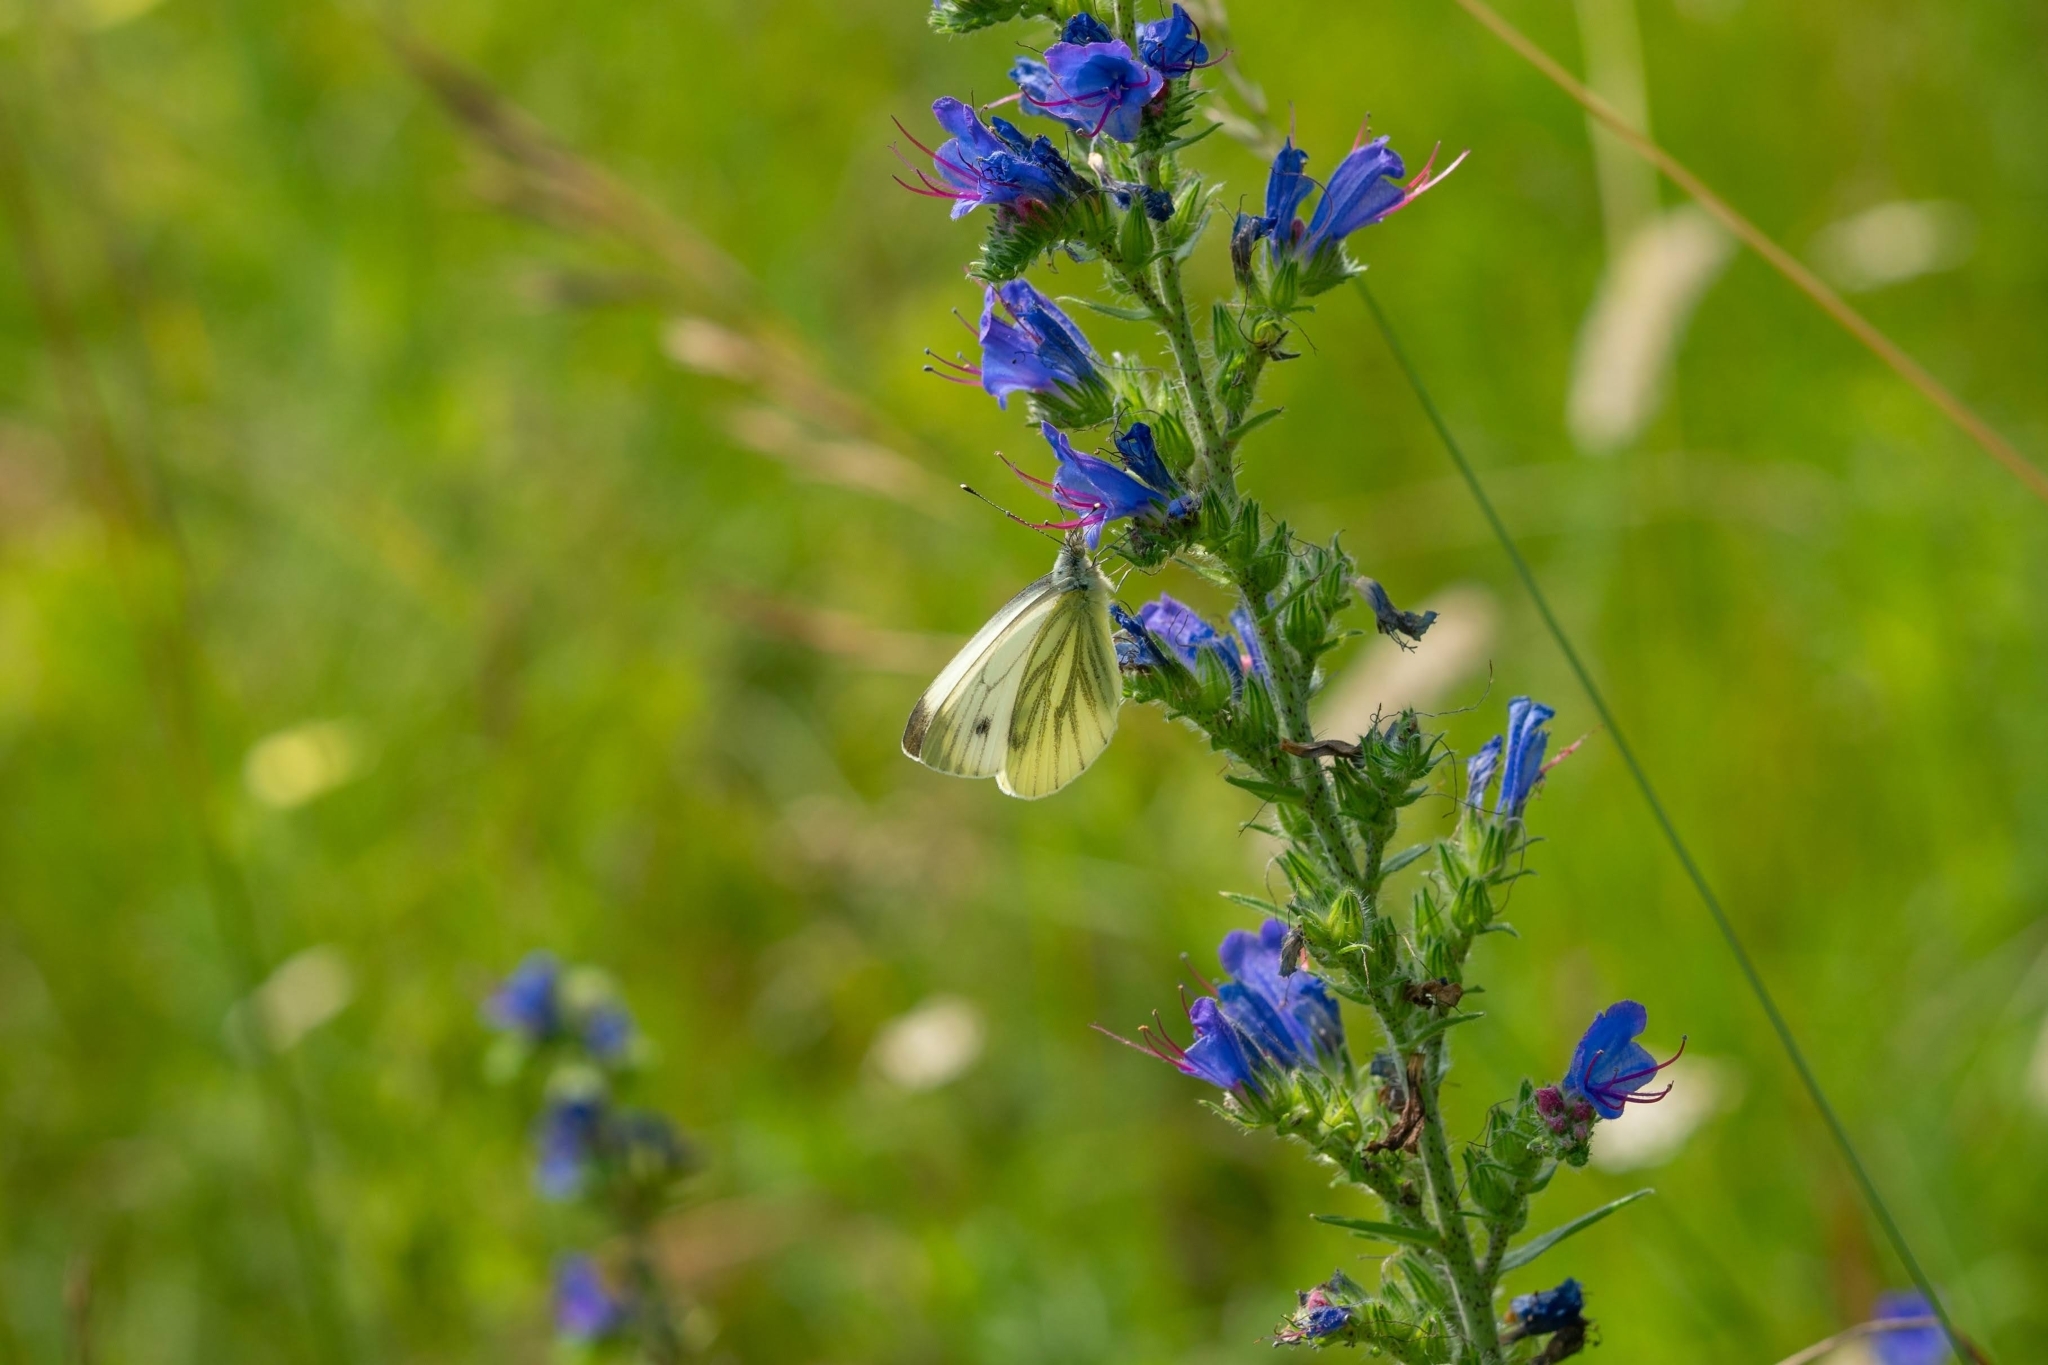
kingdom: Animalia
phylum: Arthropoda
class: Insecta
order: Lepidoptera
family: Pieridae
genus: Pieris
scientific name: Pieris napi
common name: Green-veined white
